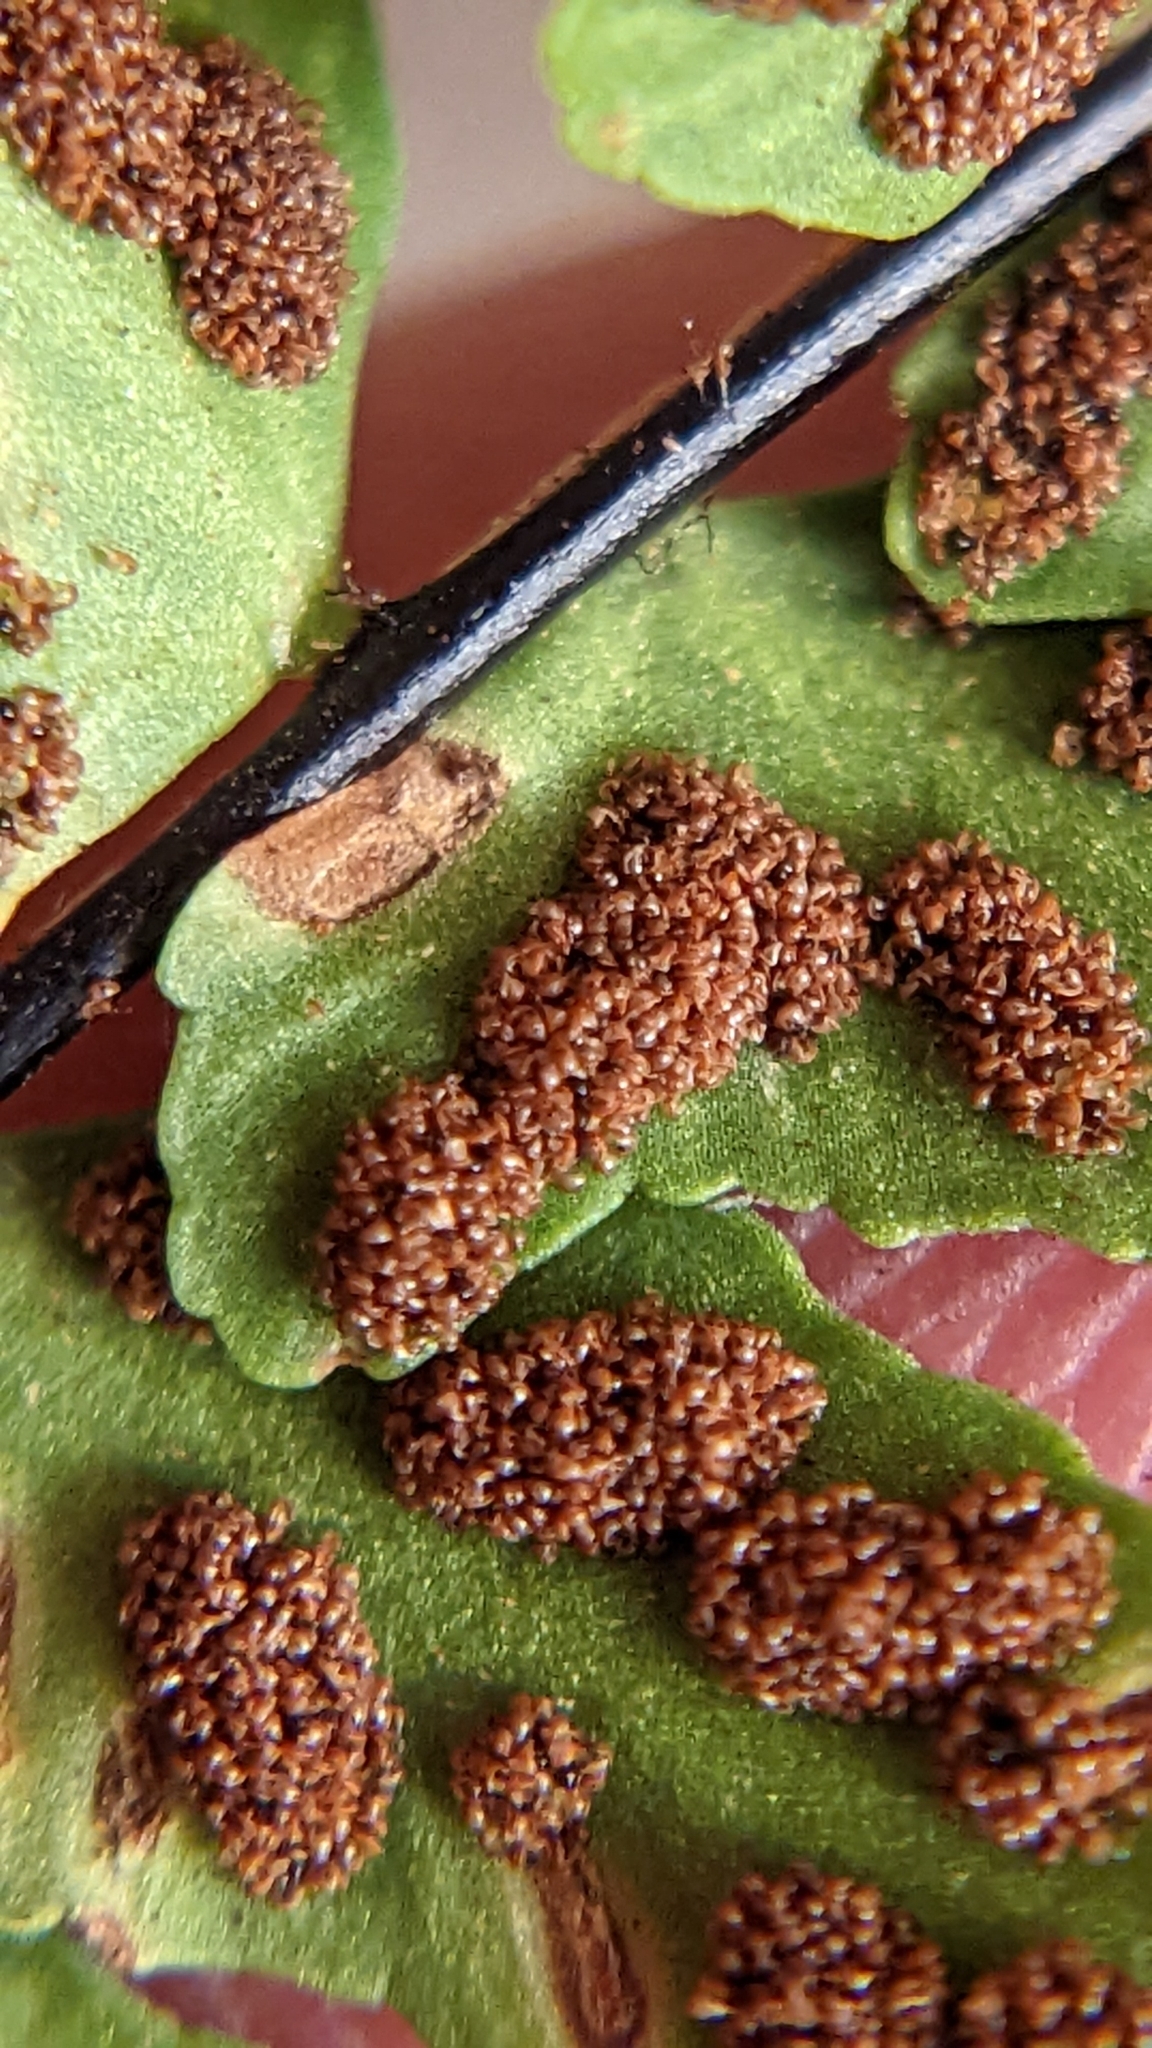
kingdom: Plantae
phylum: Tracheophyta
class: Polypodiopsida
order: Polypodiales
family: Aspleniaceae
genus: Asplenium
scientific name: Asplenium resiliens
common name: Blackstem spleenwort
